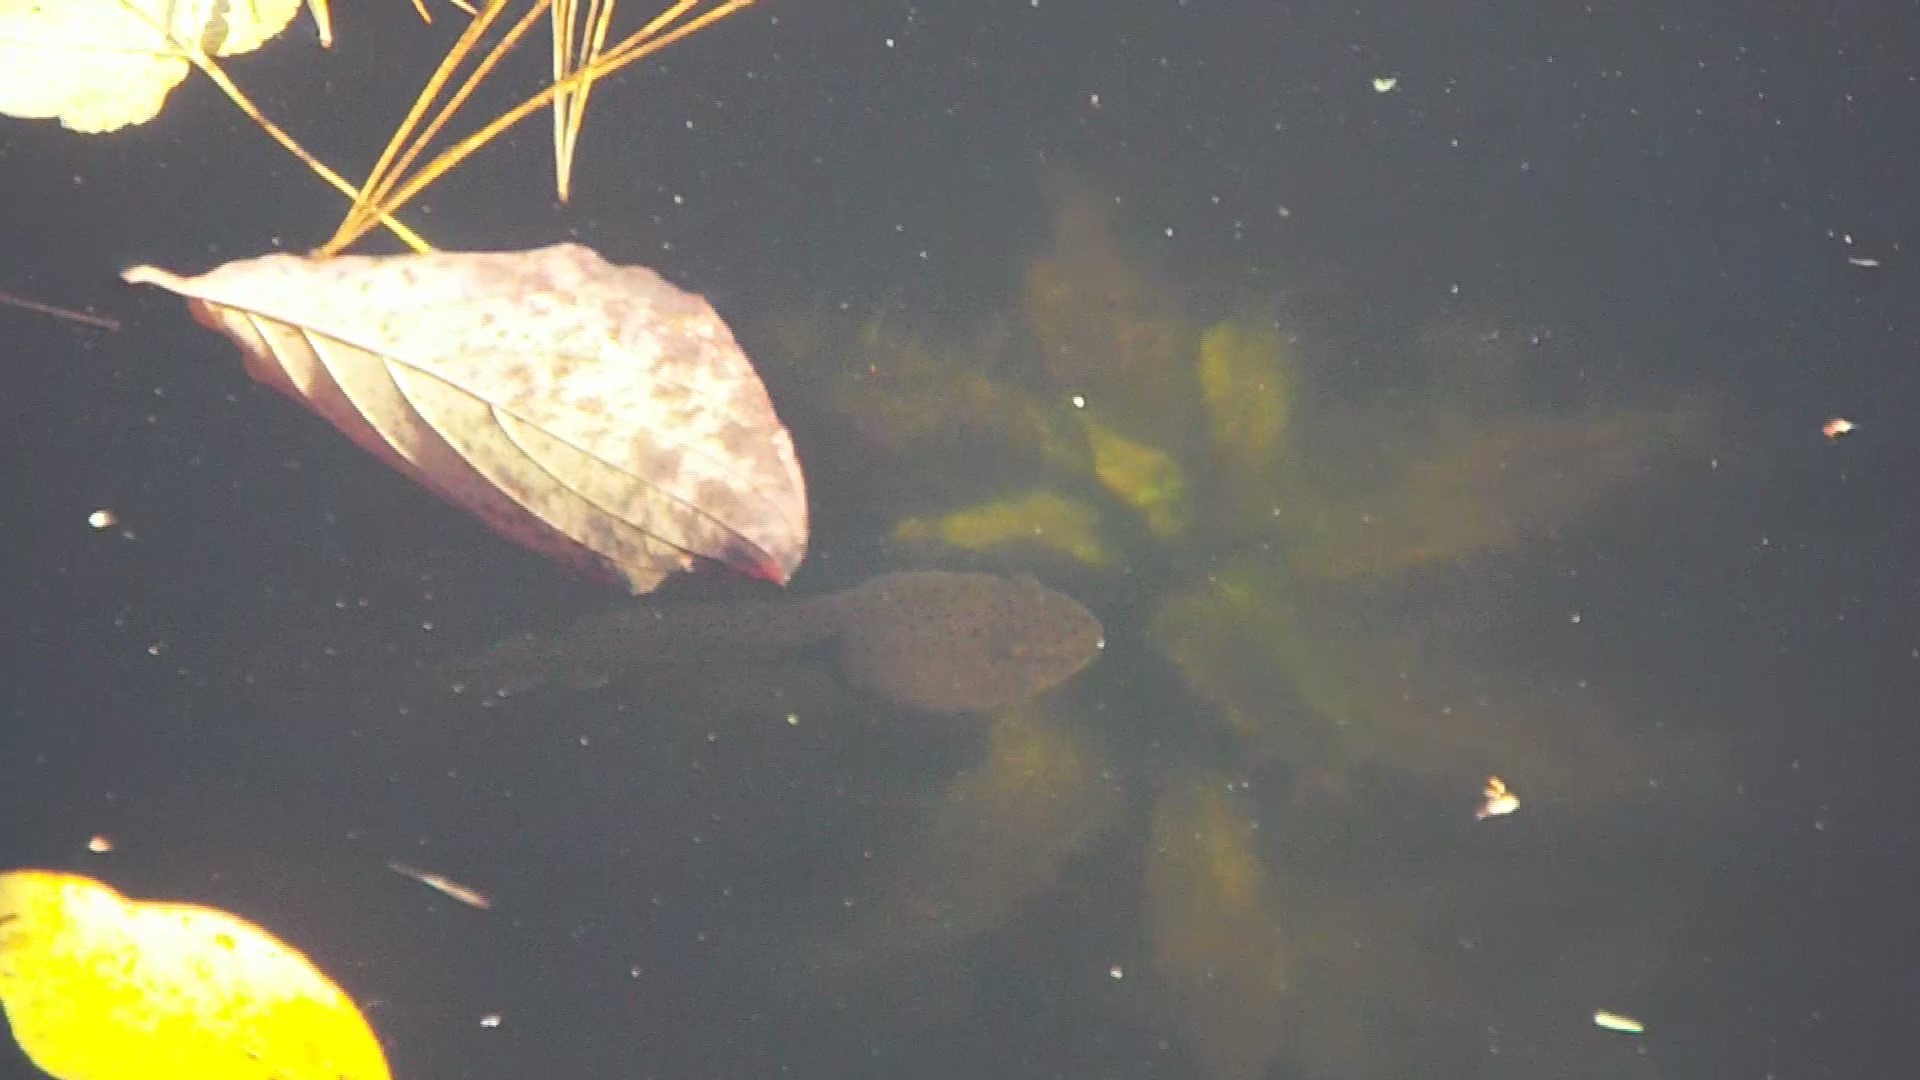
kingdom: Animalia
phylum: Chordata
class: Amphibia
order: Anura
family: Ranidae
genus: Lithobates
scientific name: Lithobates catesbeianus
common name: American bullfrog
